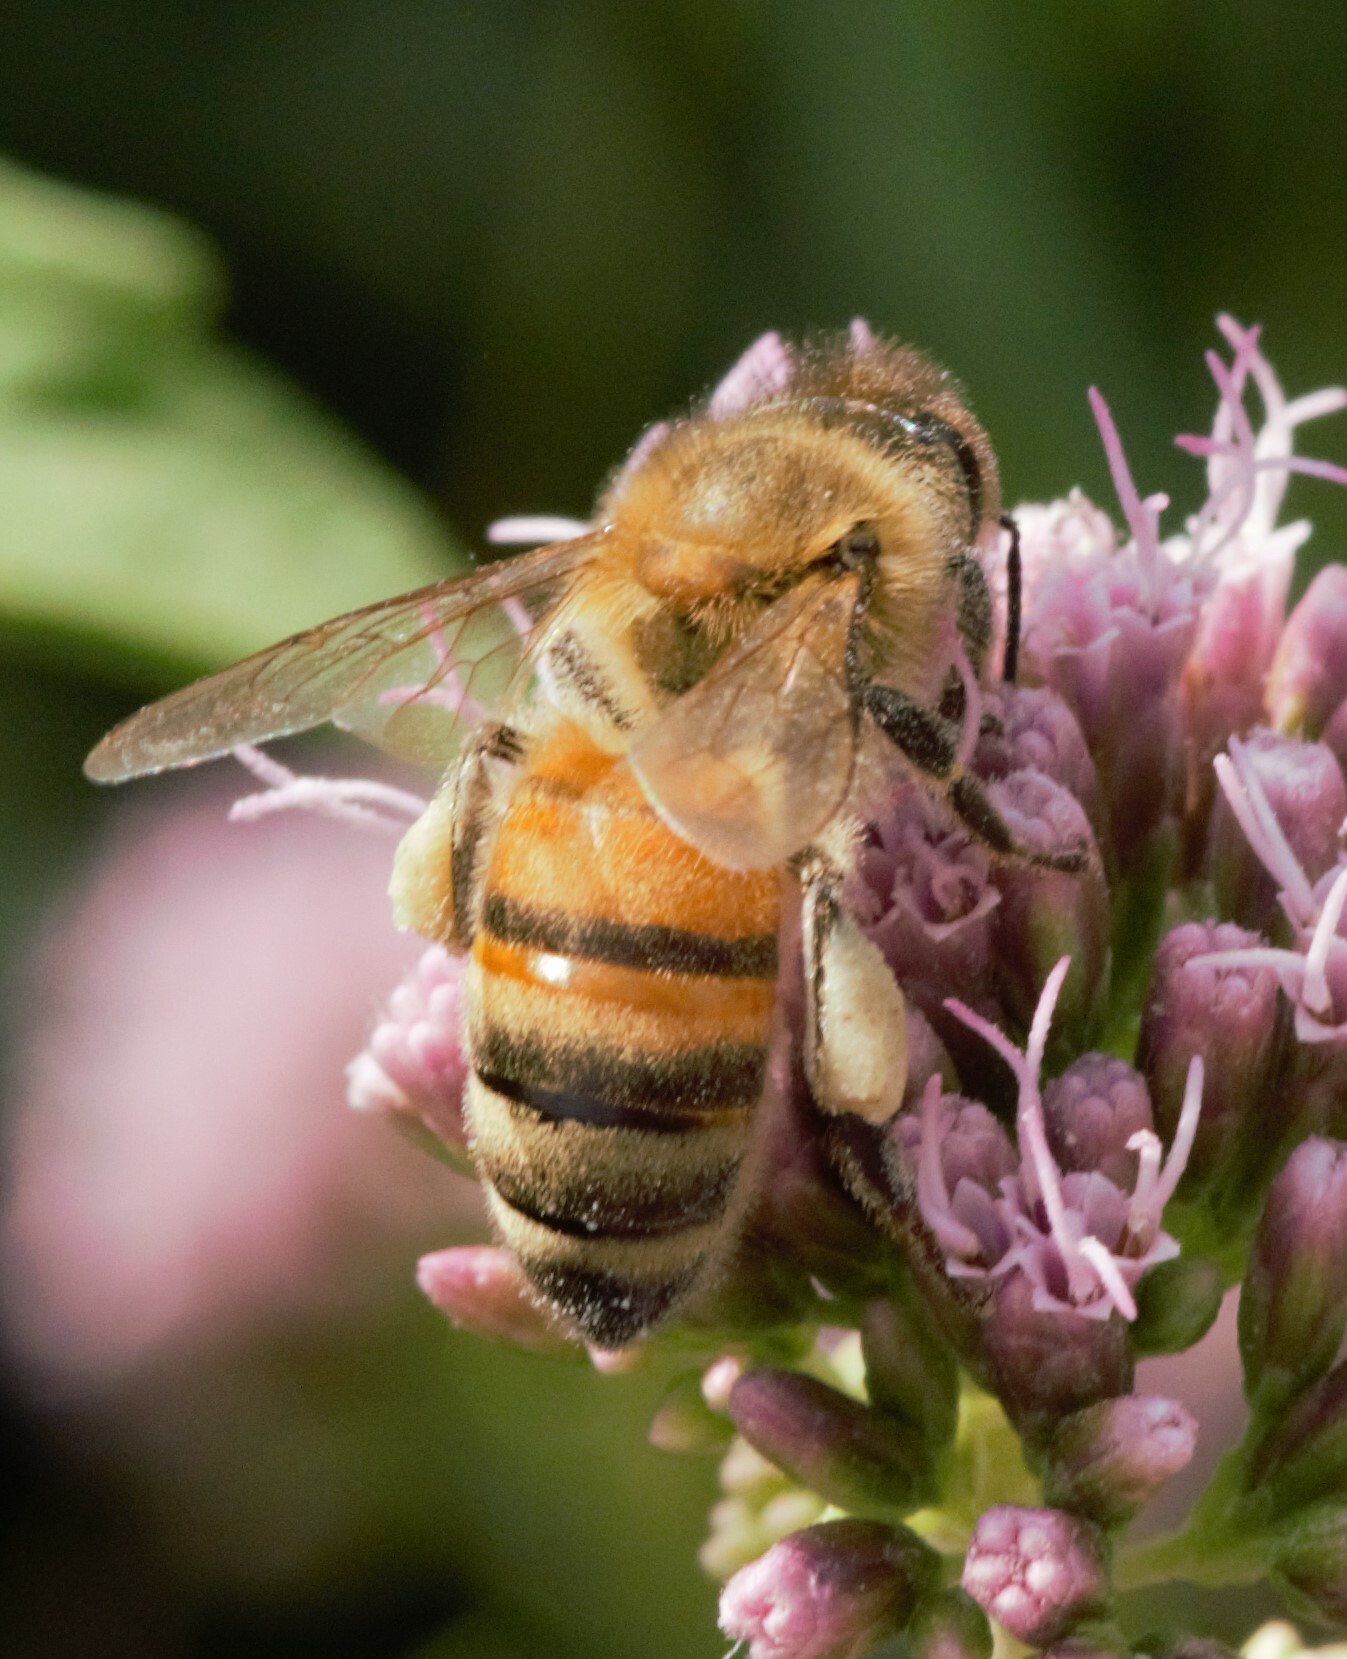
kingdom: Animalia
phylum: Arthropoda
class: Insecta
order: Hymenoptera
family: Apidae
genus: Apis
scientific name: Apis mellifera
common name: Honey bee
